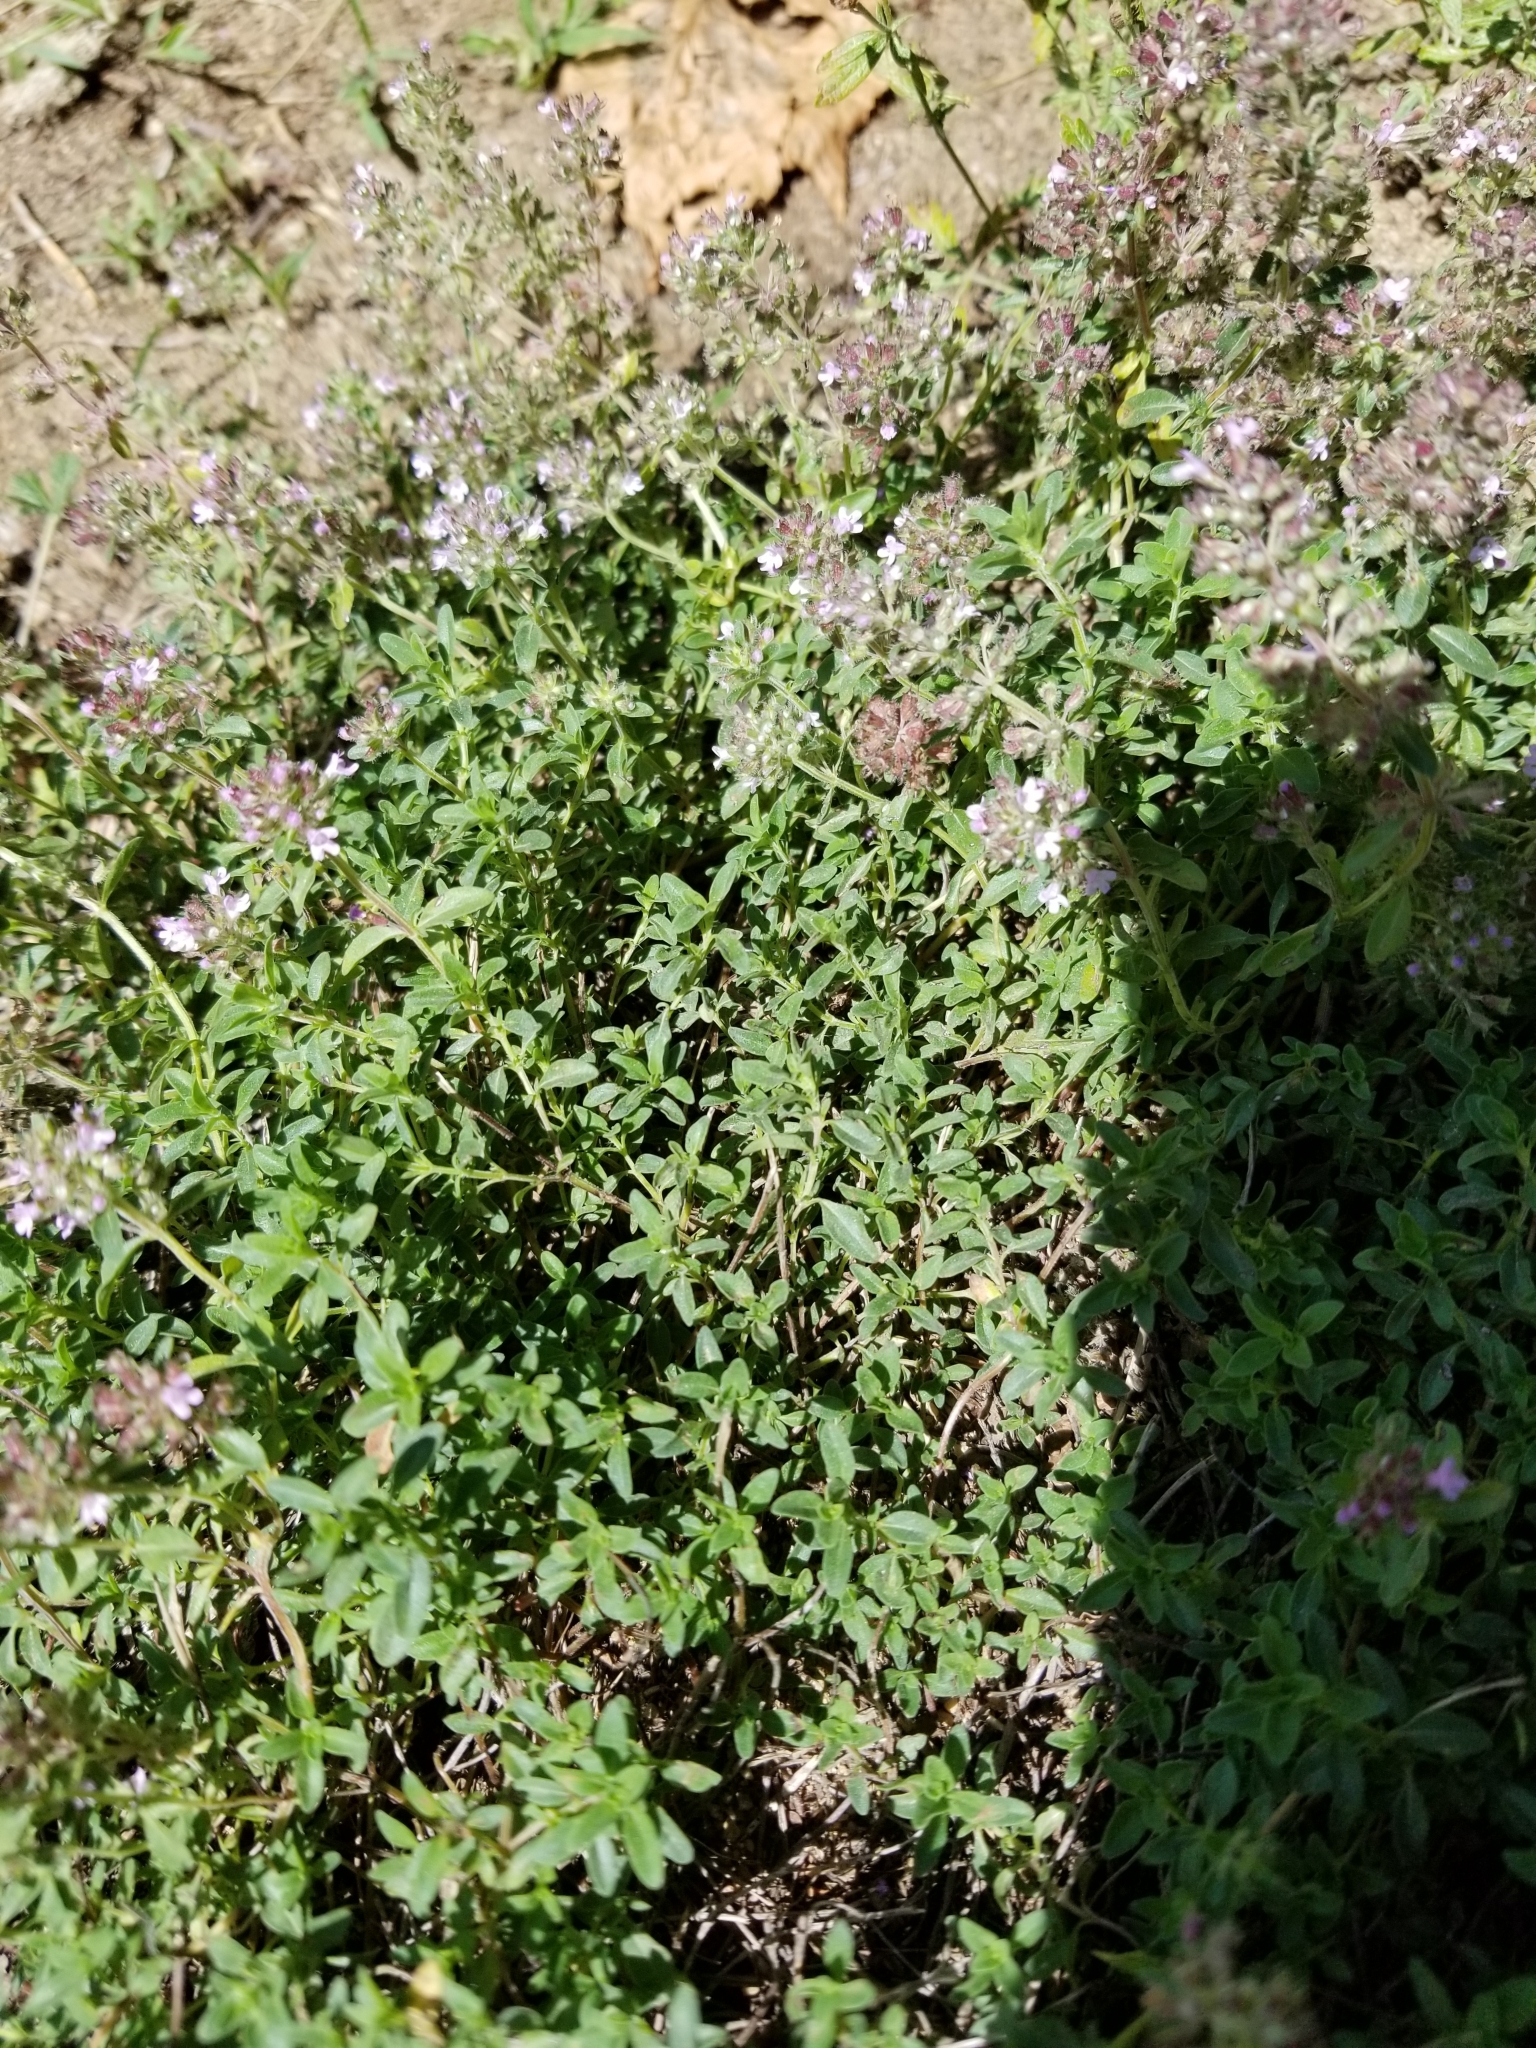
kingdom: Plantae
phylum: Tracheophyta
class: Magnoliopsida
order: Lamiales
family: Lamiaceae
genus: Thymus
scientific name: Thymus pulegioides
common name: Large thyme
